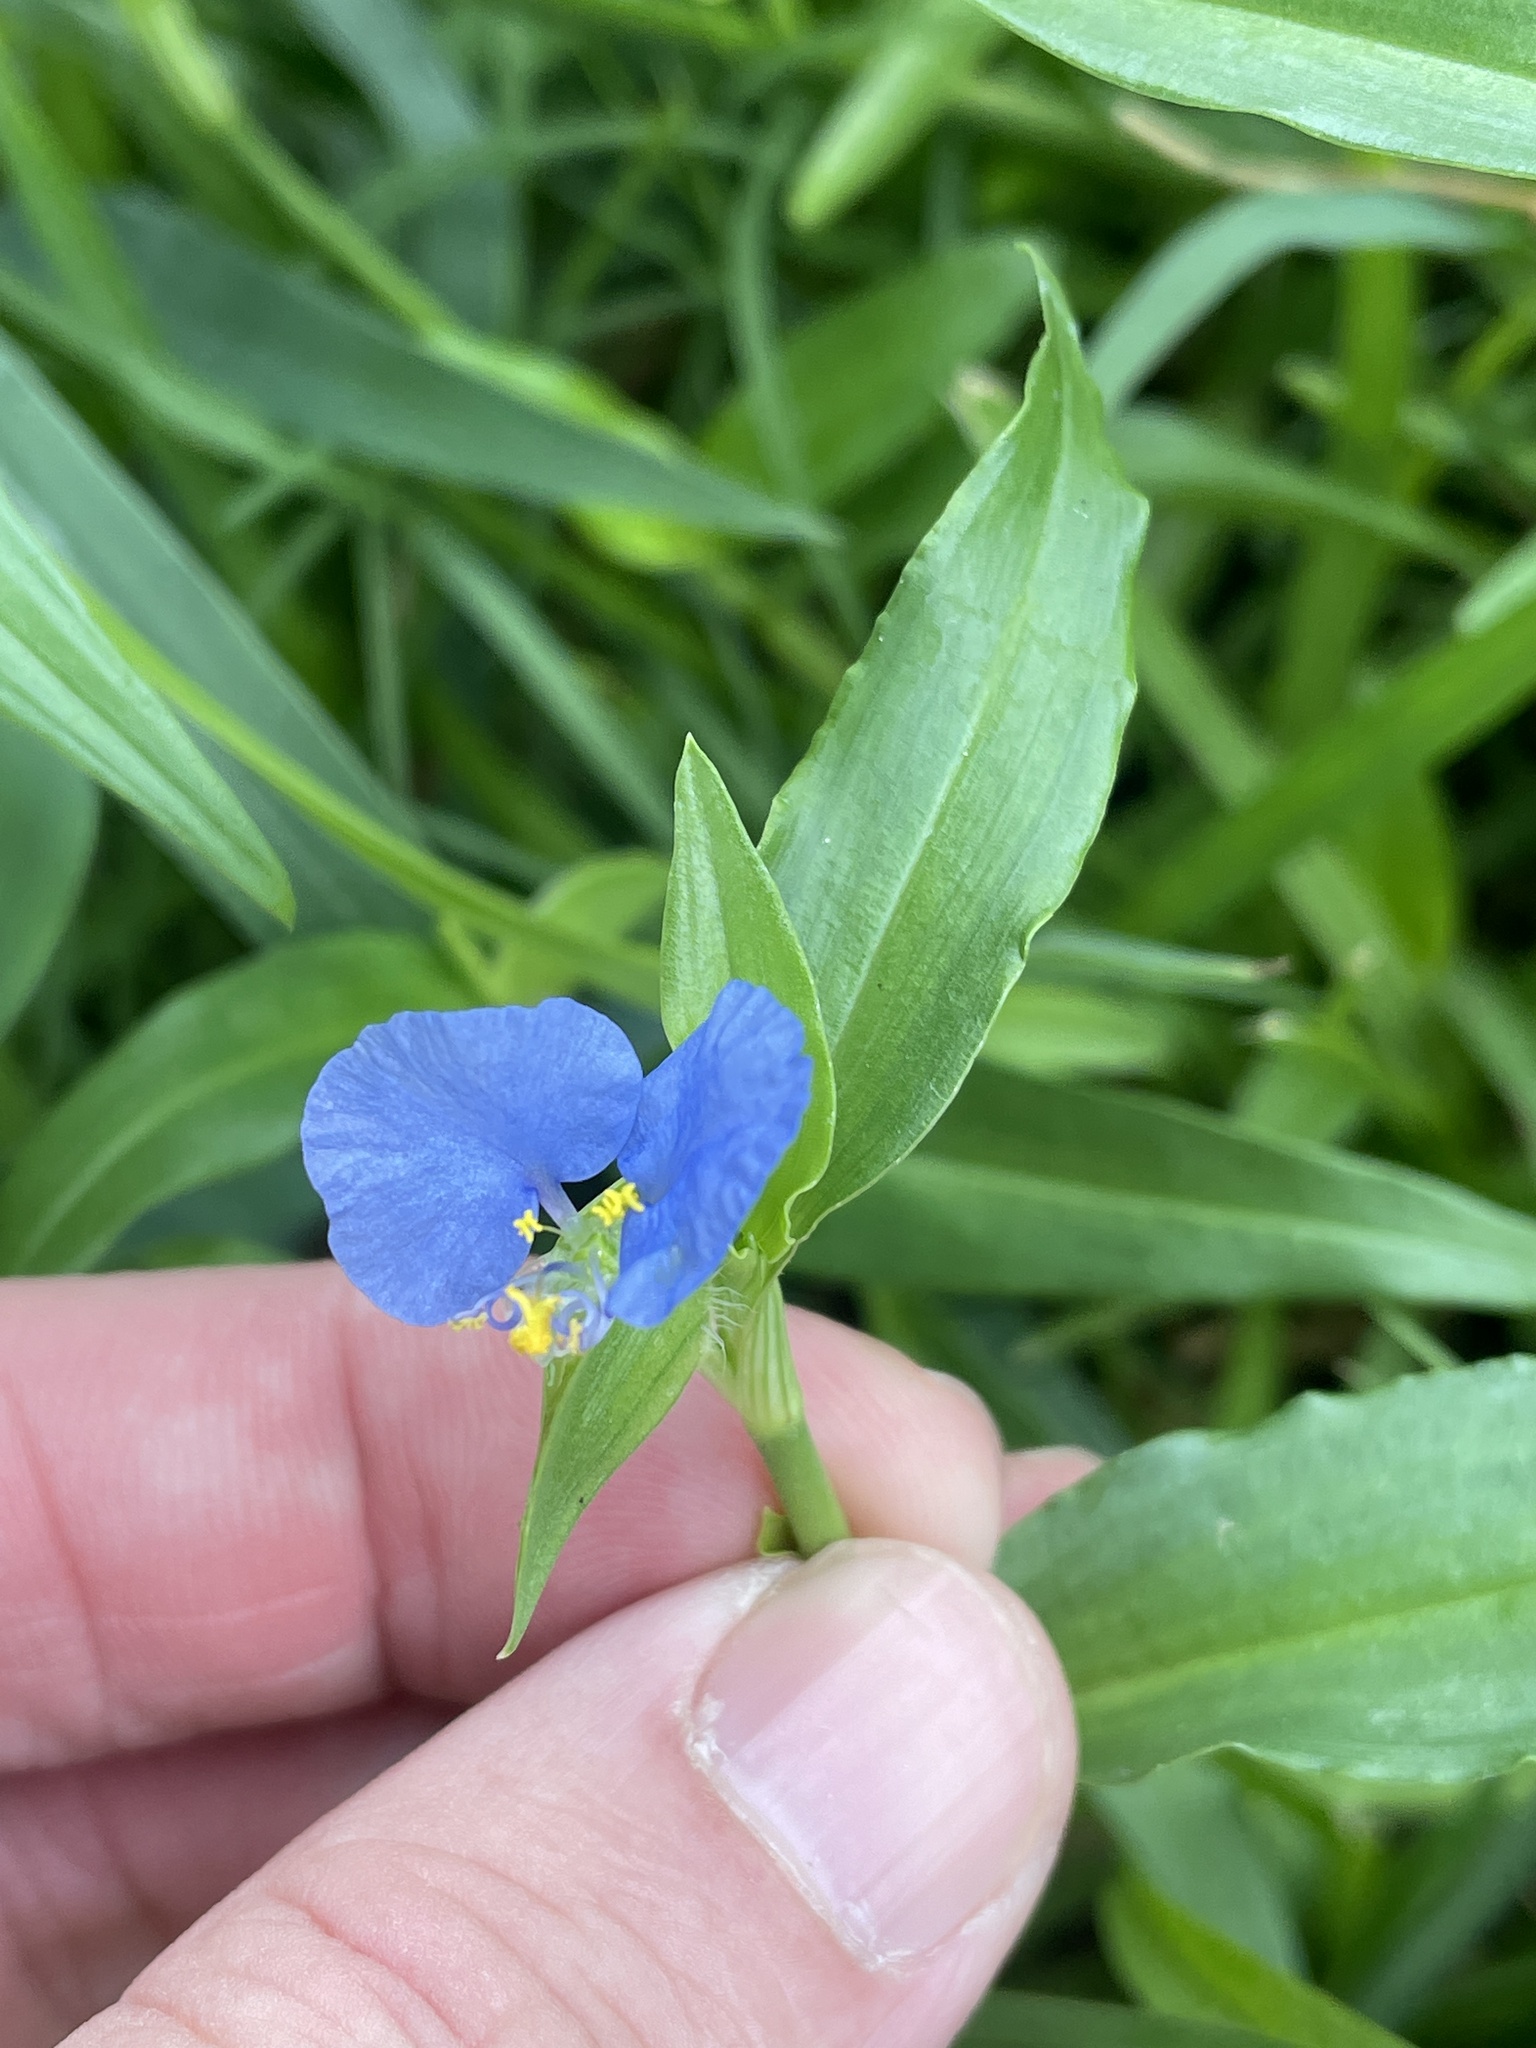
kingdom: Plantae
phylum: Tracheophyta
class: Liliopsida
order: Commelinales
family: Commelinaceae
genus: Commelina
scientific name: Commelina erecta
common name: Blousel blommetjie
